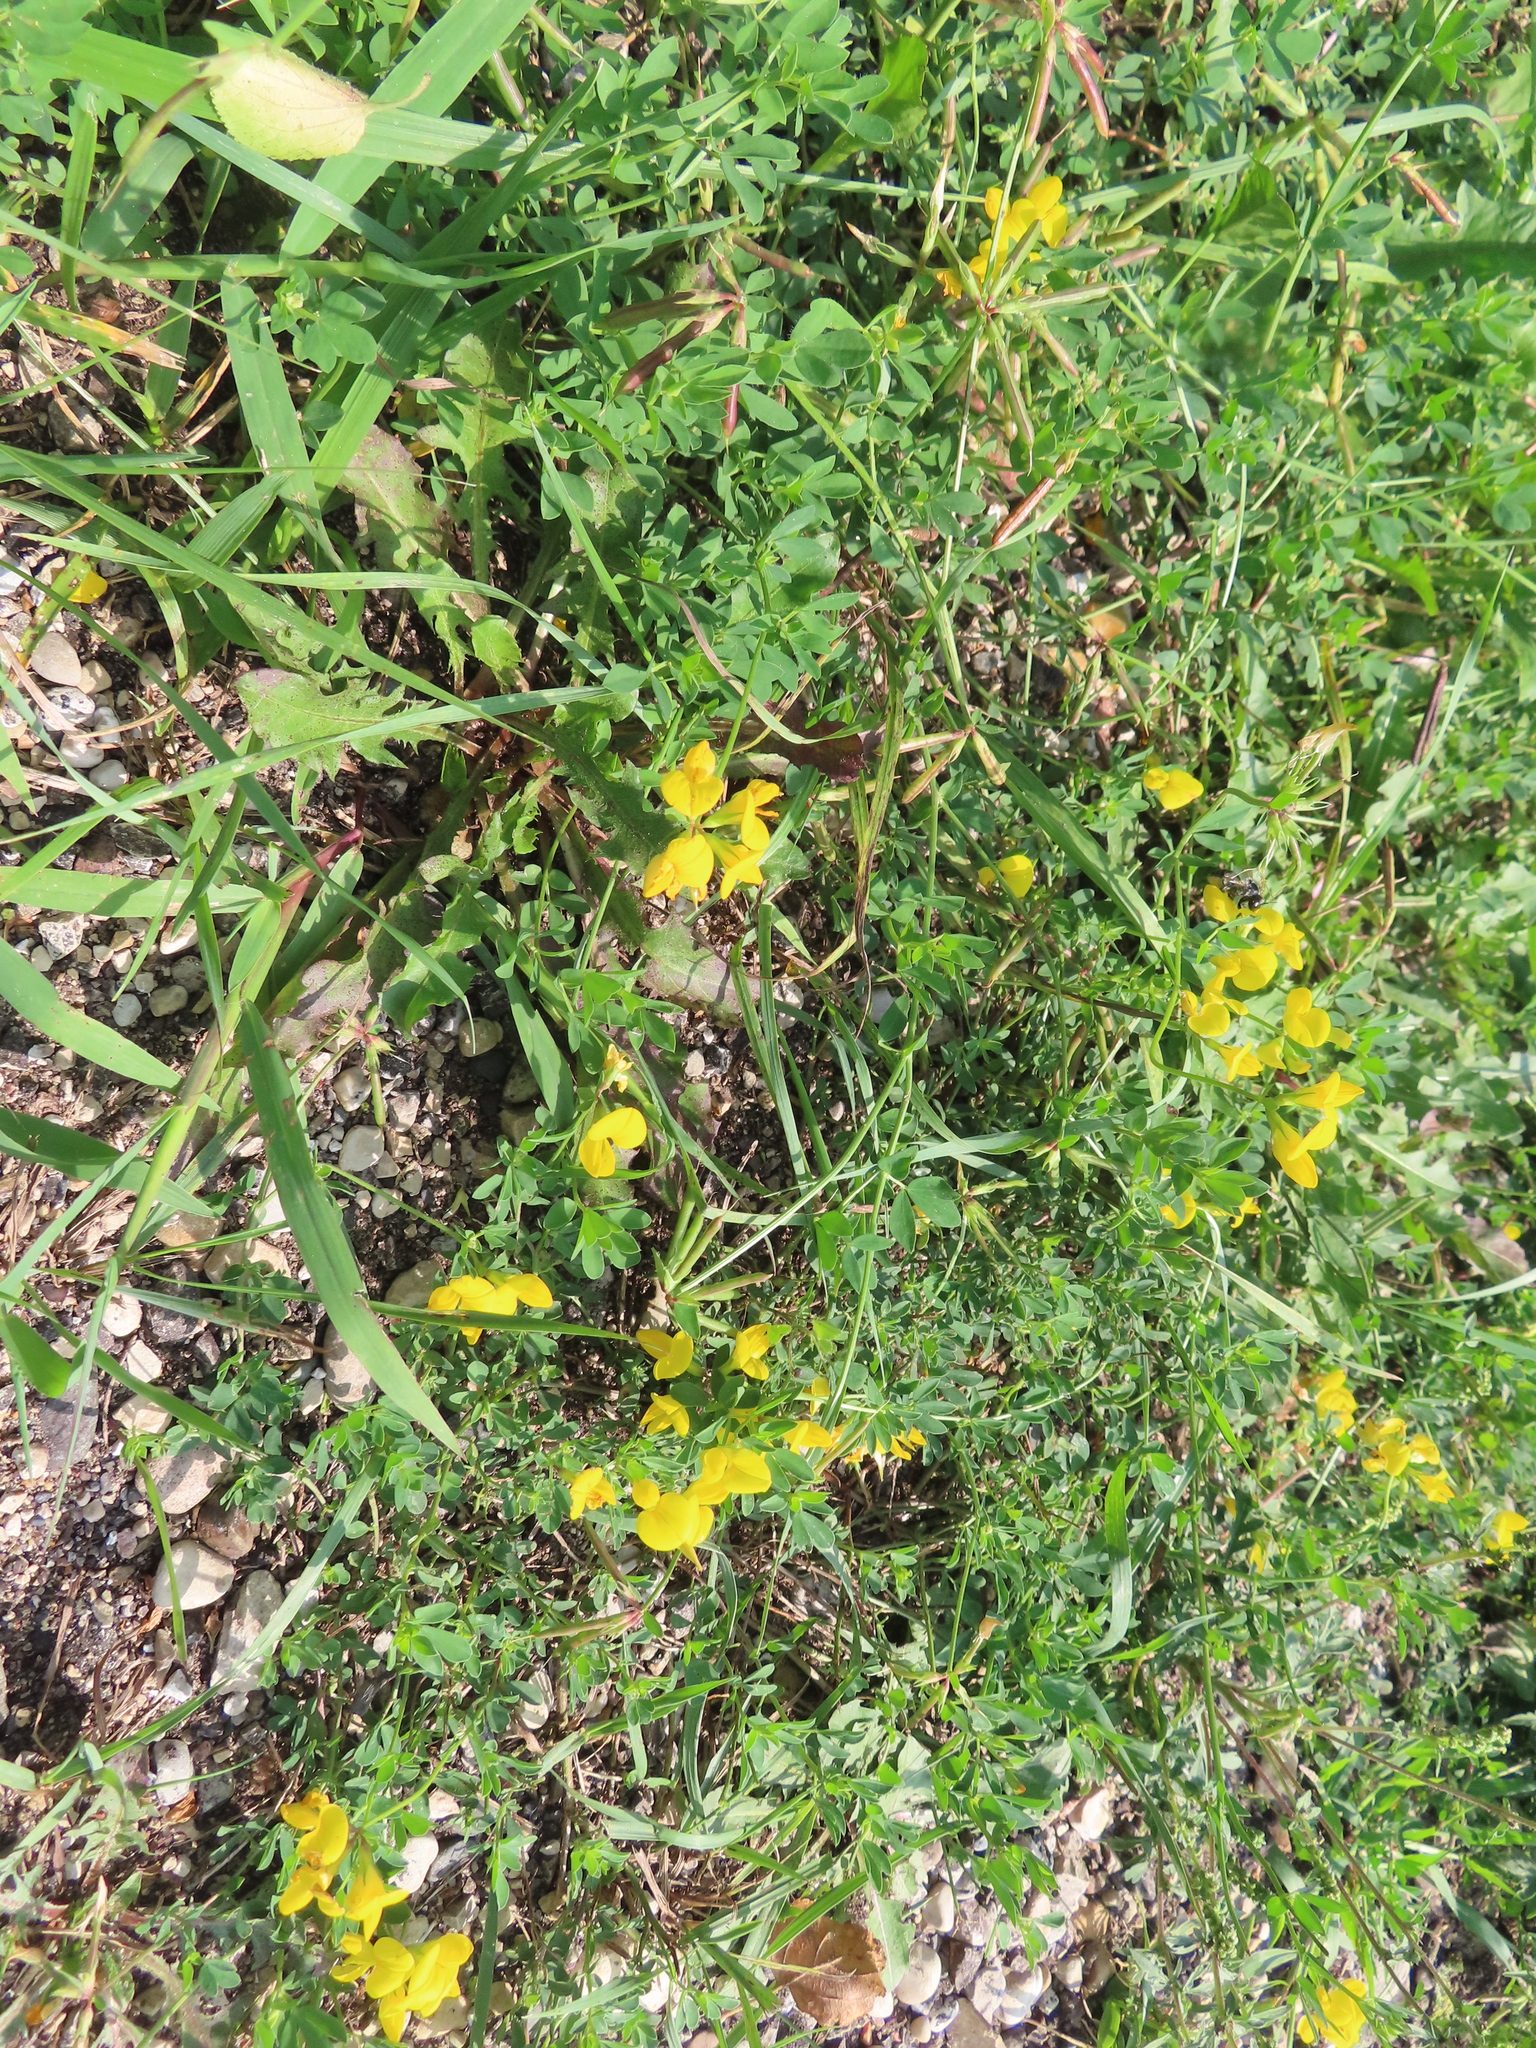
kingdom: Plantae
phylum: Tracheophyta
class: Magnoliopsida
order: Fabales
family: Fabaceae
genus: Lotus
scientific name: Lotus corniculatus
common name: Common bird's-foot-trefoil
